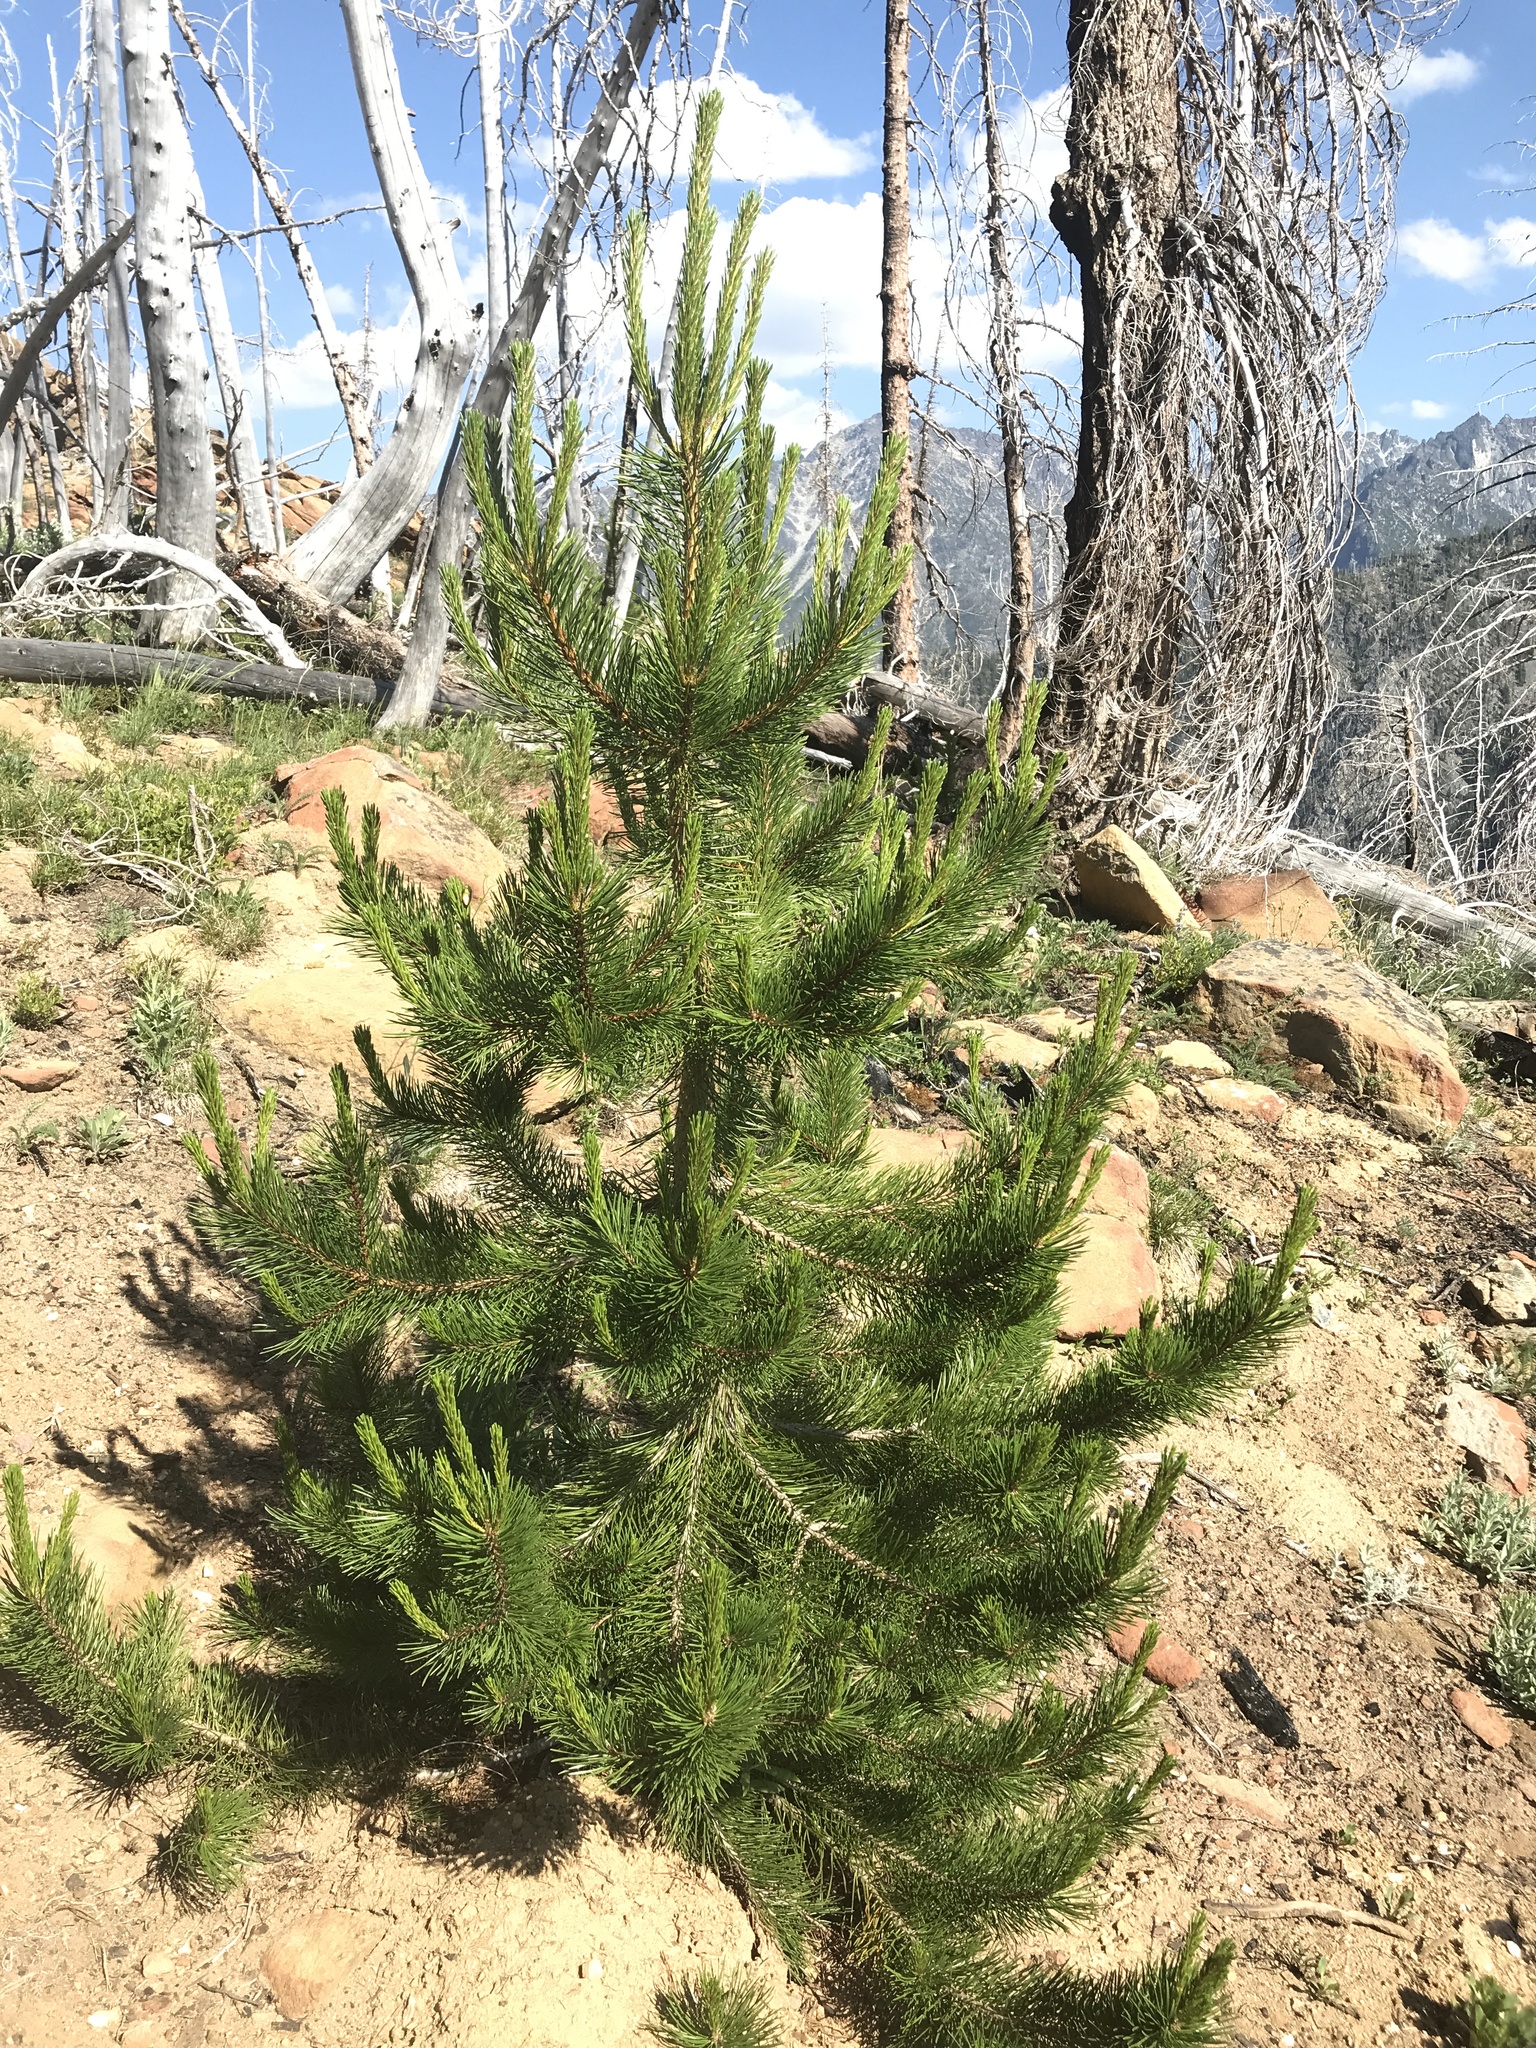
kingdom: Plantae
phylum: Tracheophyta
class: Pinopsida
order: Pinales
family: Pinaceae
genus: Pinus
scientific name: Pinus contorta
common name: Lodgepole pine
